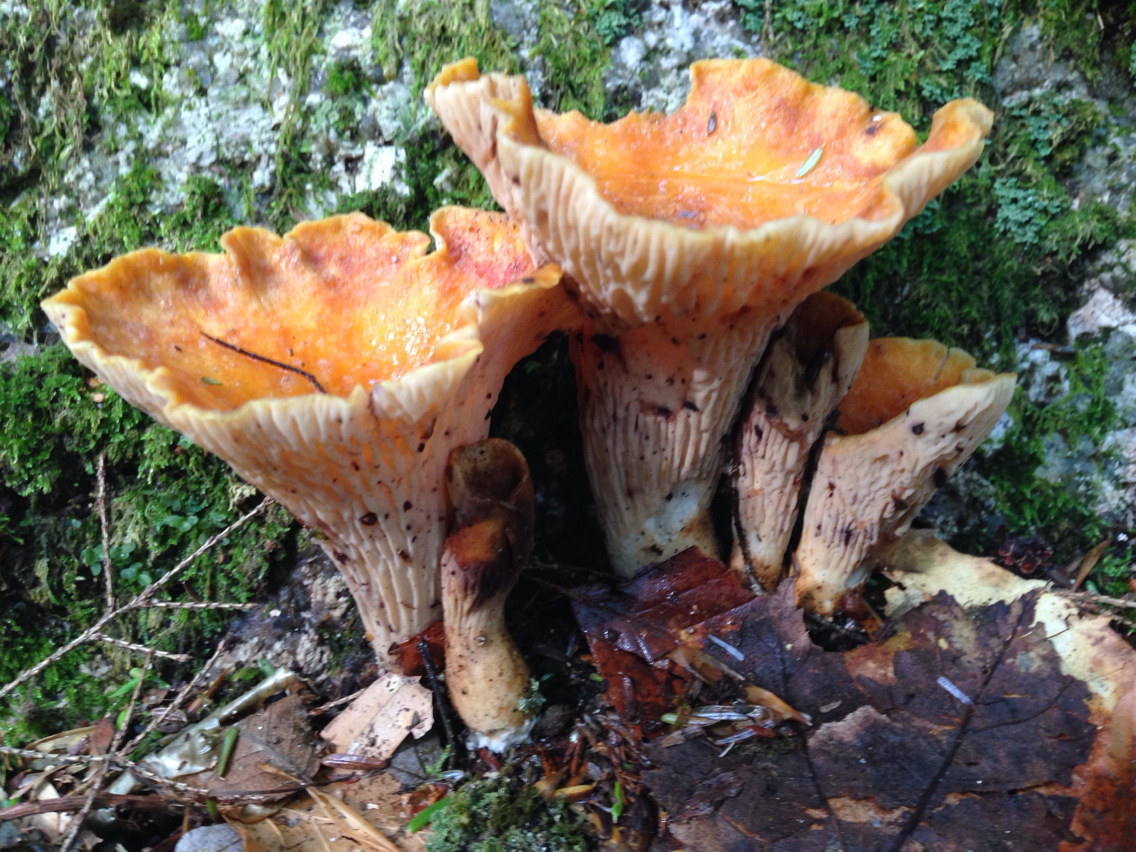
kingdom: Fungi
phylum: Basidiomycota
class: Agaricomycetes
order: Gomphales
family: Gomphaceae
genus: Turbinellus
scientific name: Turbinellus floccosus
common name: Scaly chanterelle
